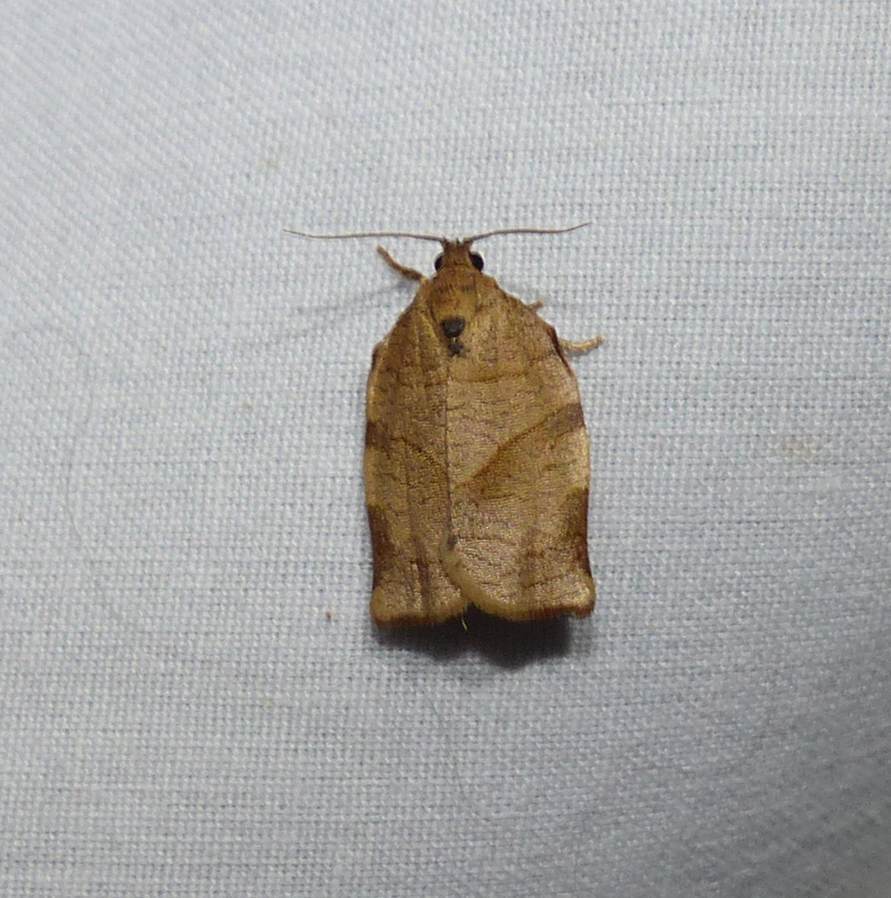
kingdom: Animalia
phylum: Arthropoda
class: Insecta
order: Lepidoptera
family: Tortricidae
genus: Choristoneura
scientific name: Choristoneura rosaceana
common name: Oblique-banded leafroller moth
